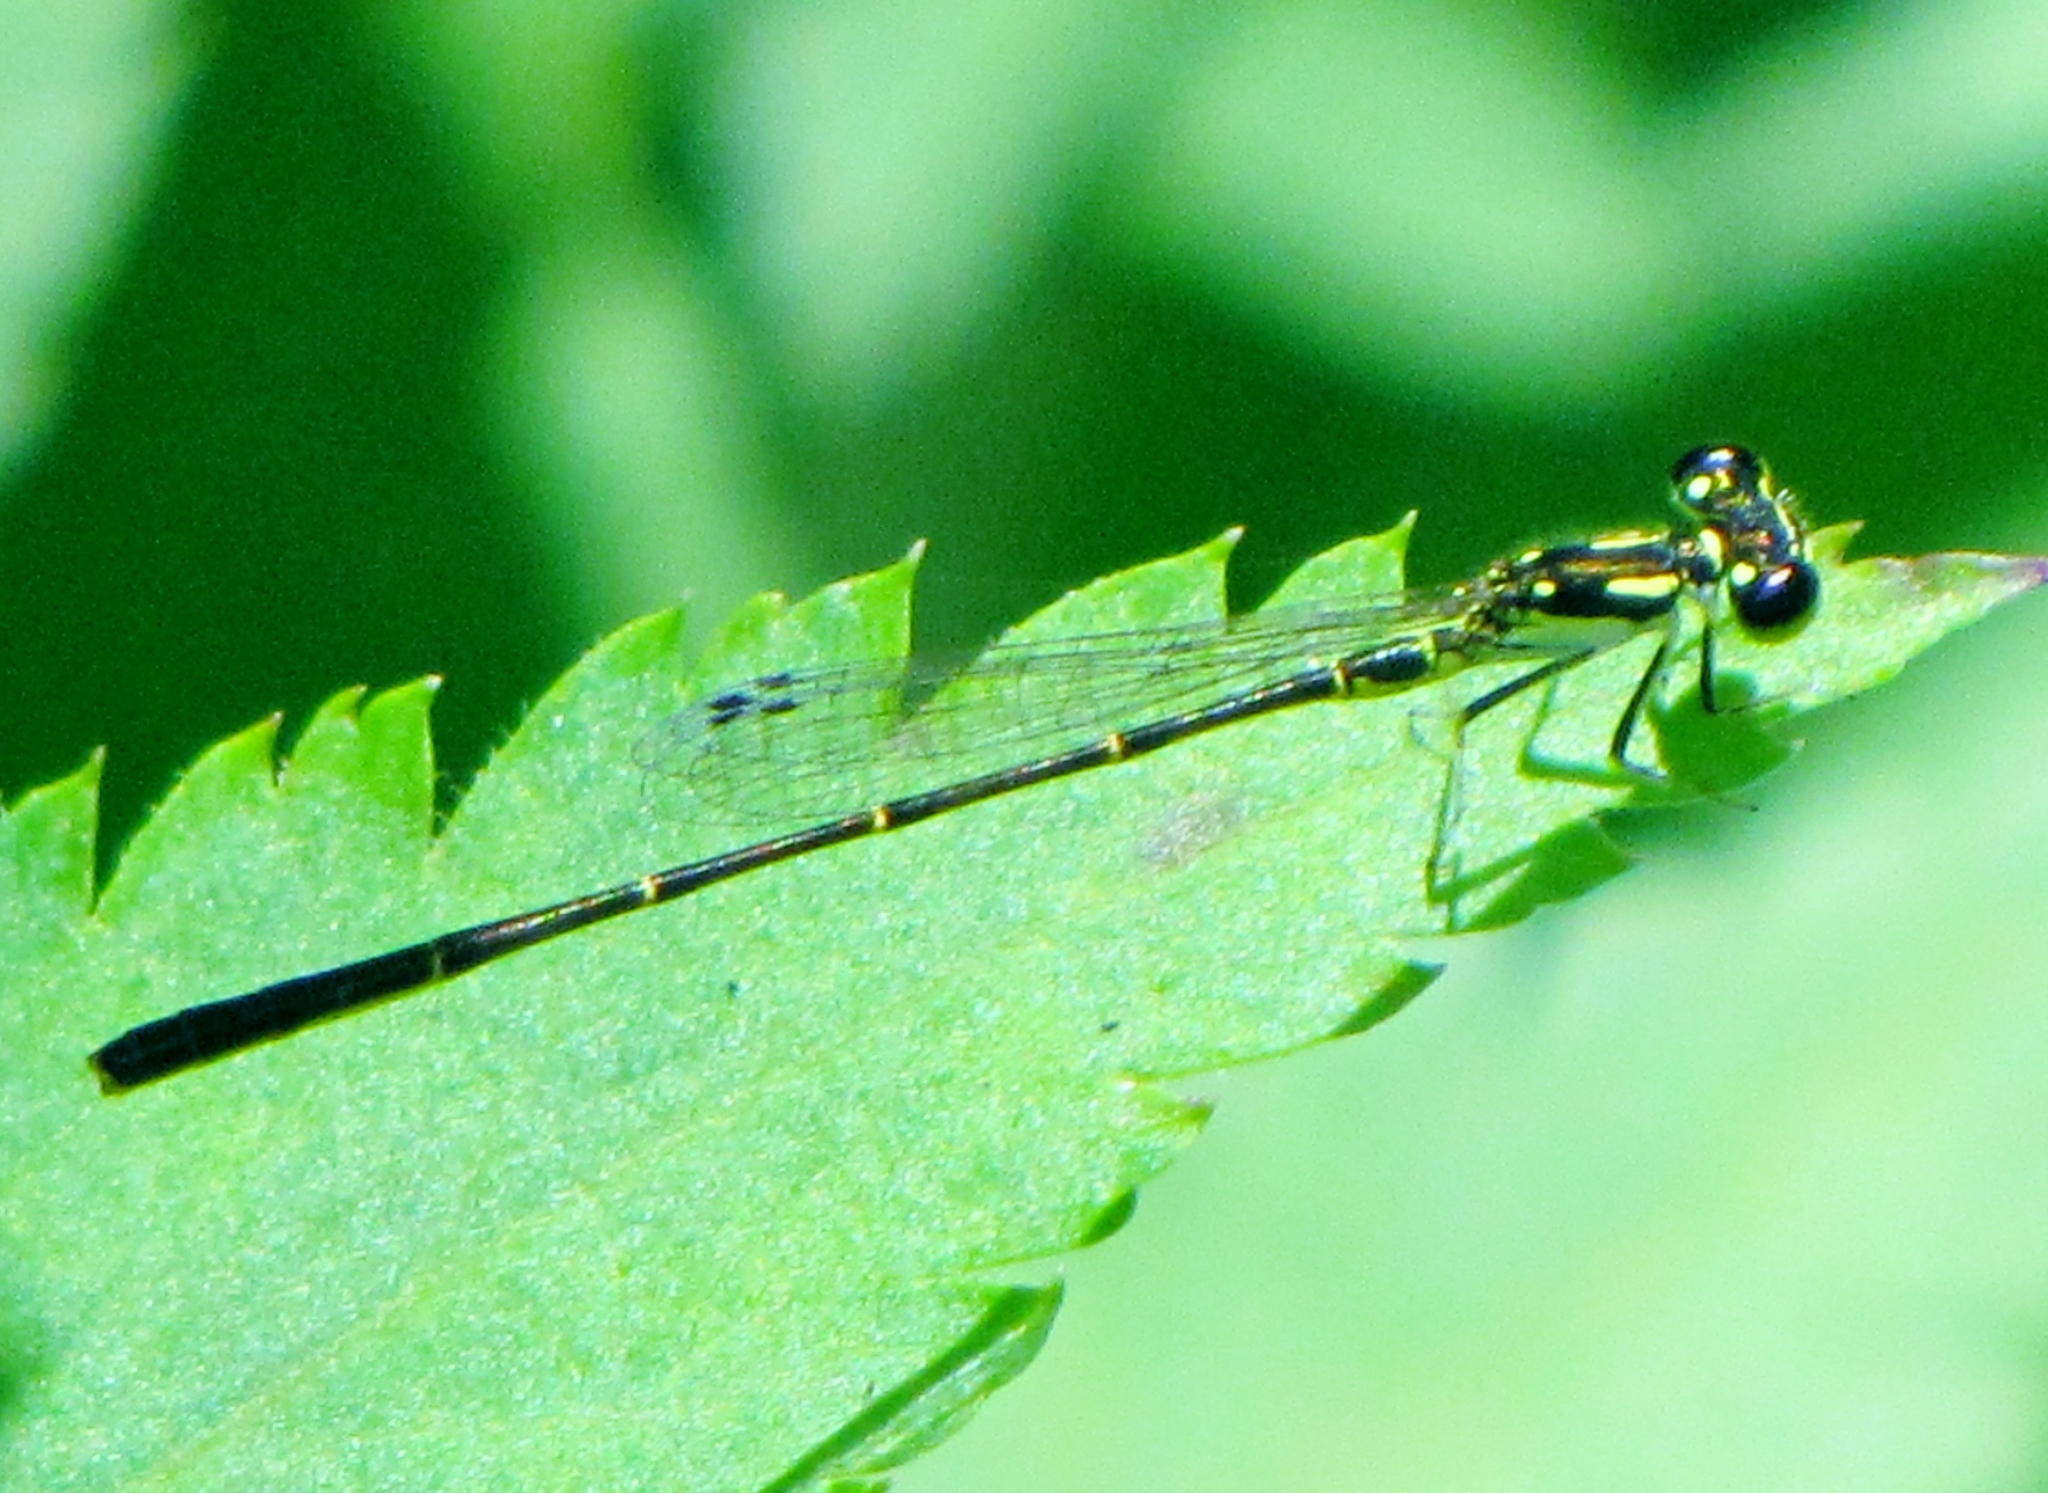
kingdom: Animalia
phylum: Arthropoda
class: Insecta
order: Odonata
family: Coenagrionidae
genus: Ischnura
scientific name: Ischnura posita
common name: Fragile forktail
